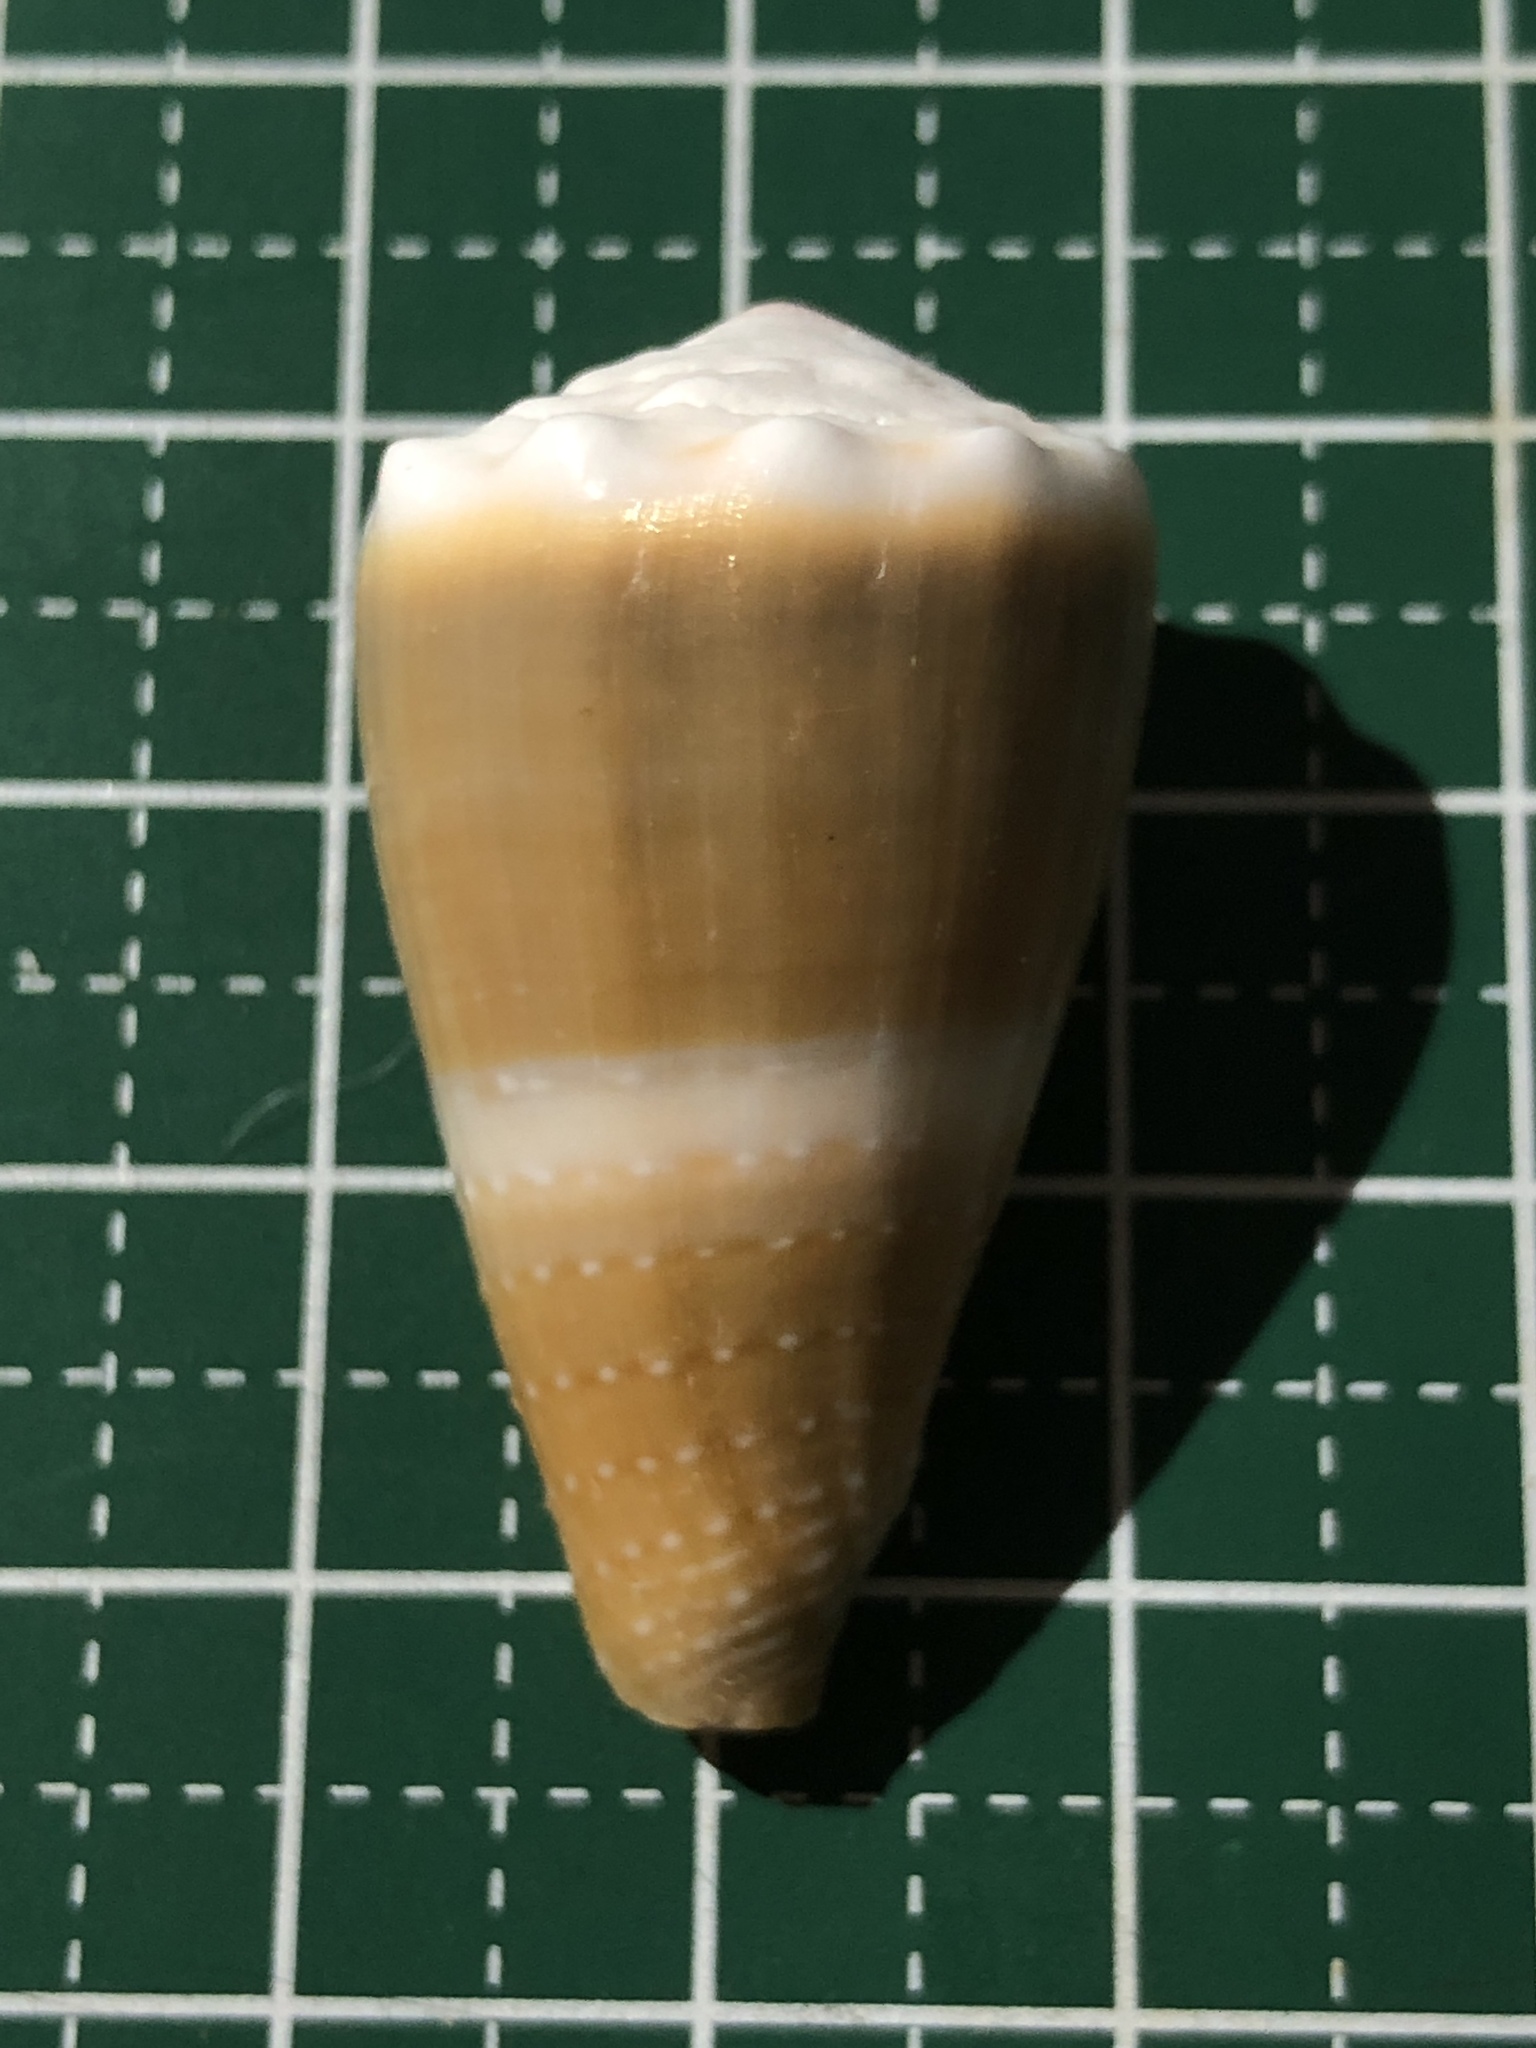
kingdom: Animalia
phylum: Mollusca
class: Gastropoda
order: Neogastropoda
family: Conidae
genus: Conus
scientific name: Conus lividus
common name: Livid cone
